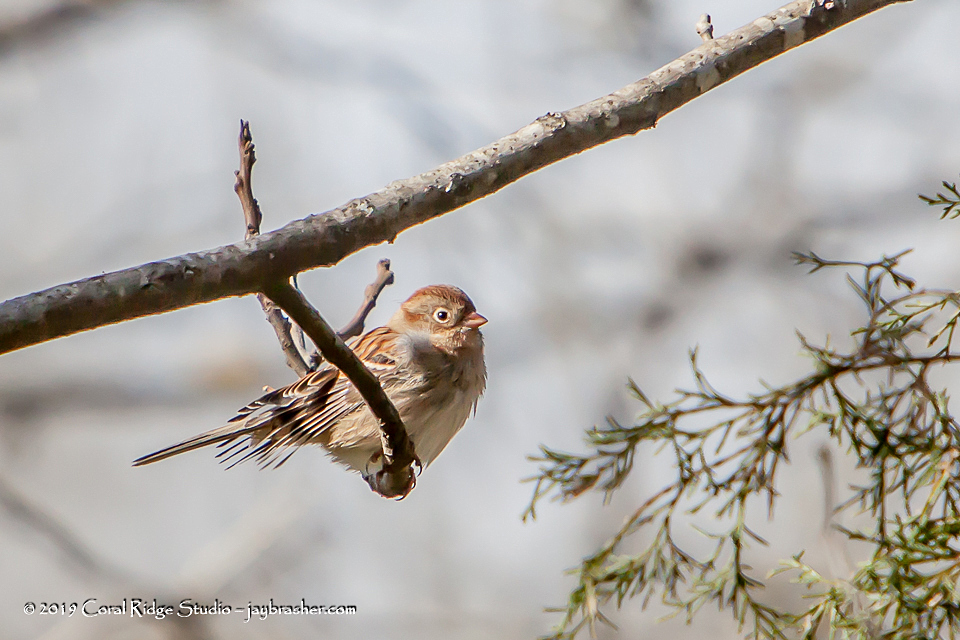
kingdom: Animalia
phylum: Chordata
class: Aves
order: Passeriformes
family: Passerellidae
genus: Spizella
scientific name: Spizella pusilla
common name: Field sparrow
